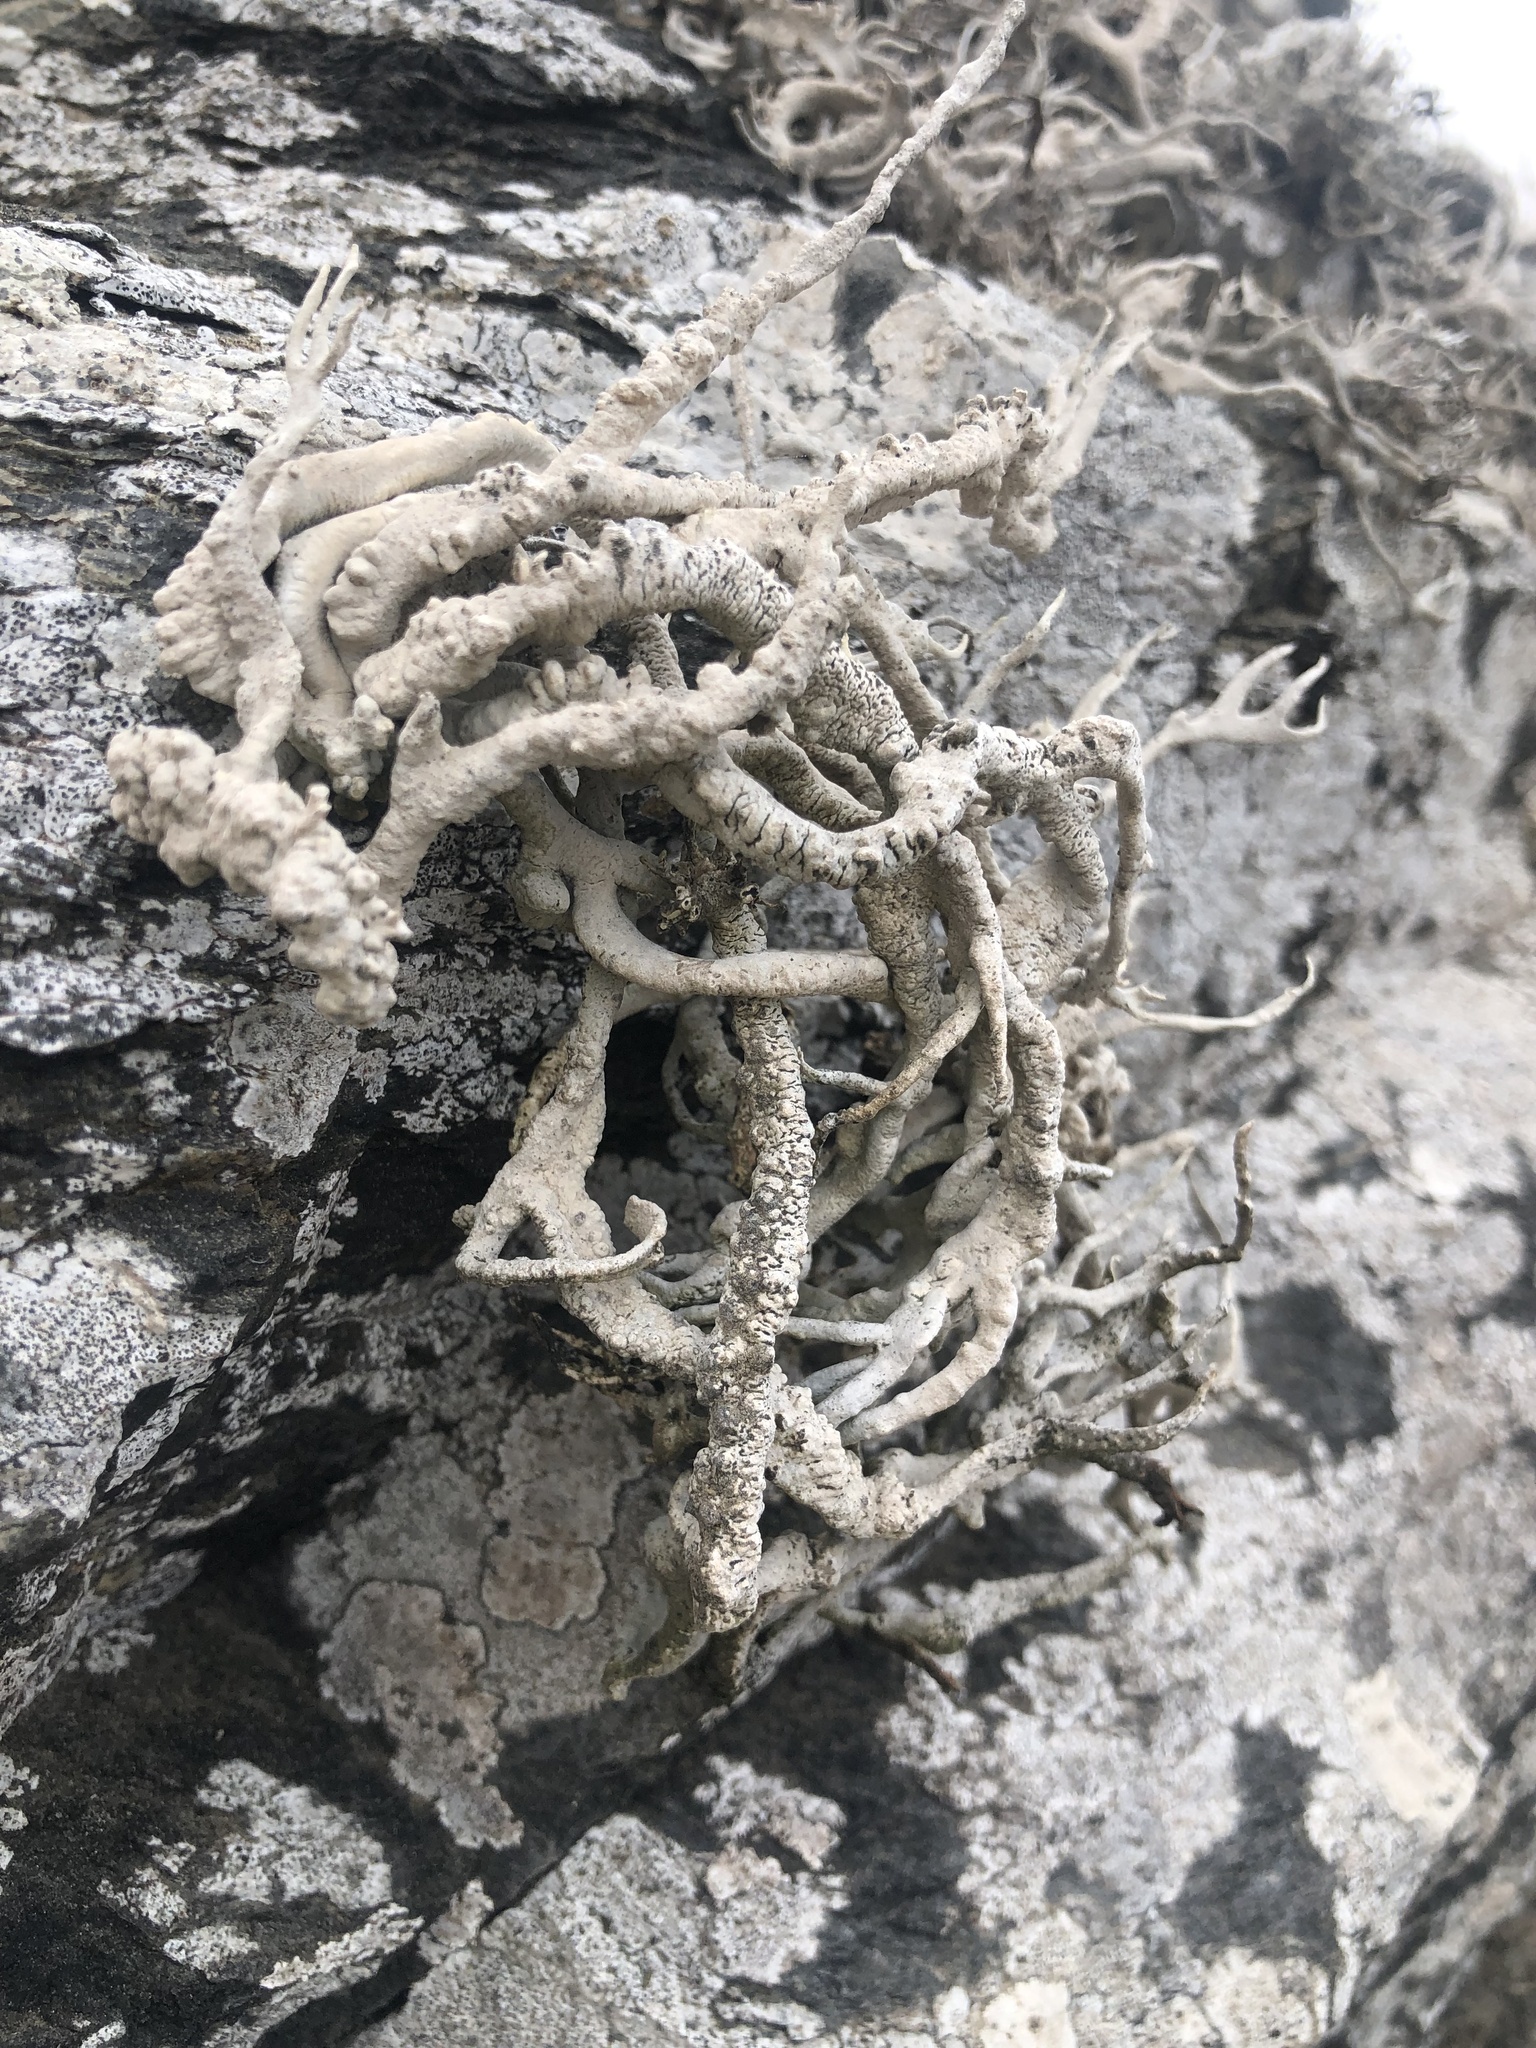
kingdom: Fungi
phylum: Ascomycota
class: Arthoniomycetes
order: Arthoniales
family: Roccellaceae
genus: Austroroccella
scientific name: Austroroccella gayana
